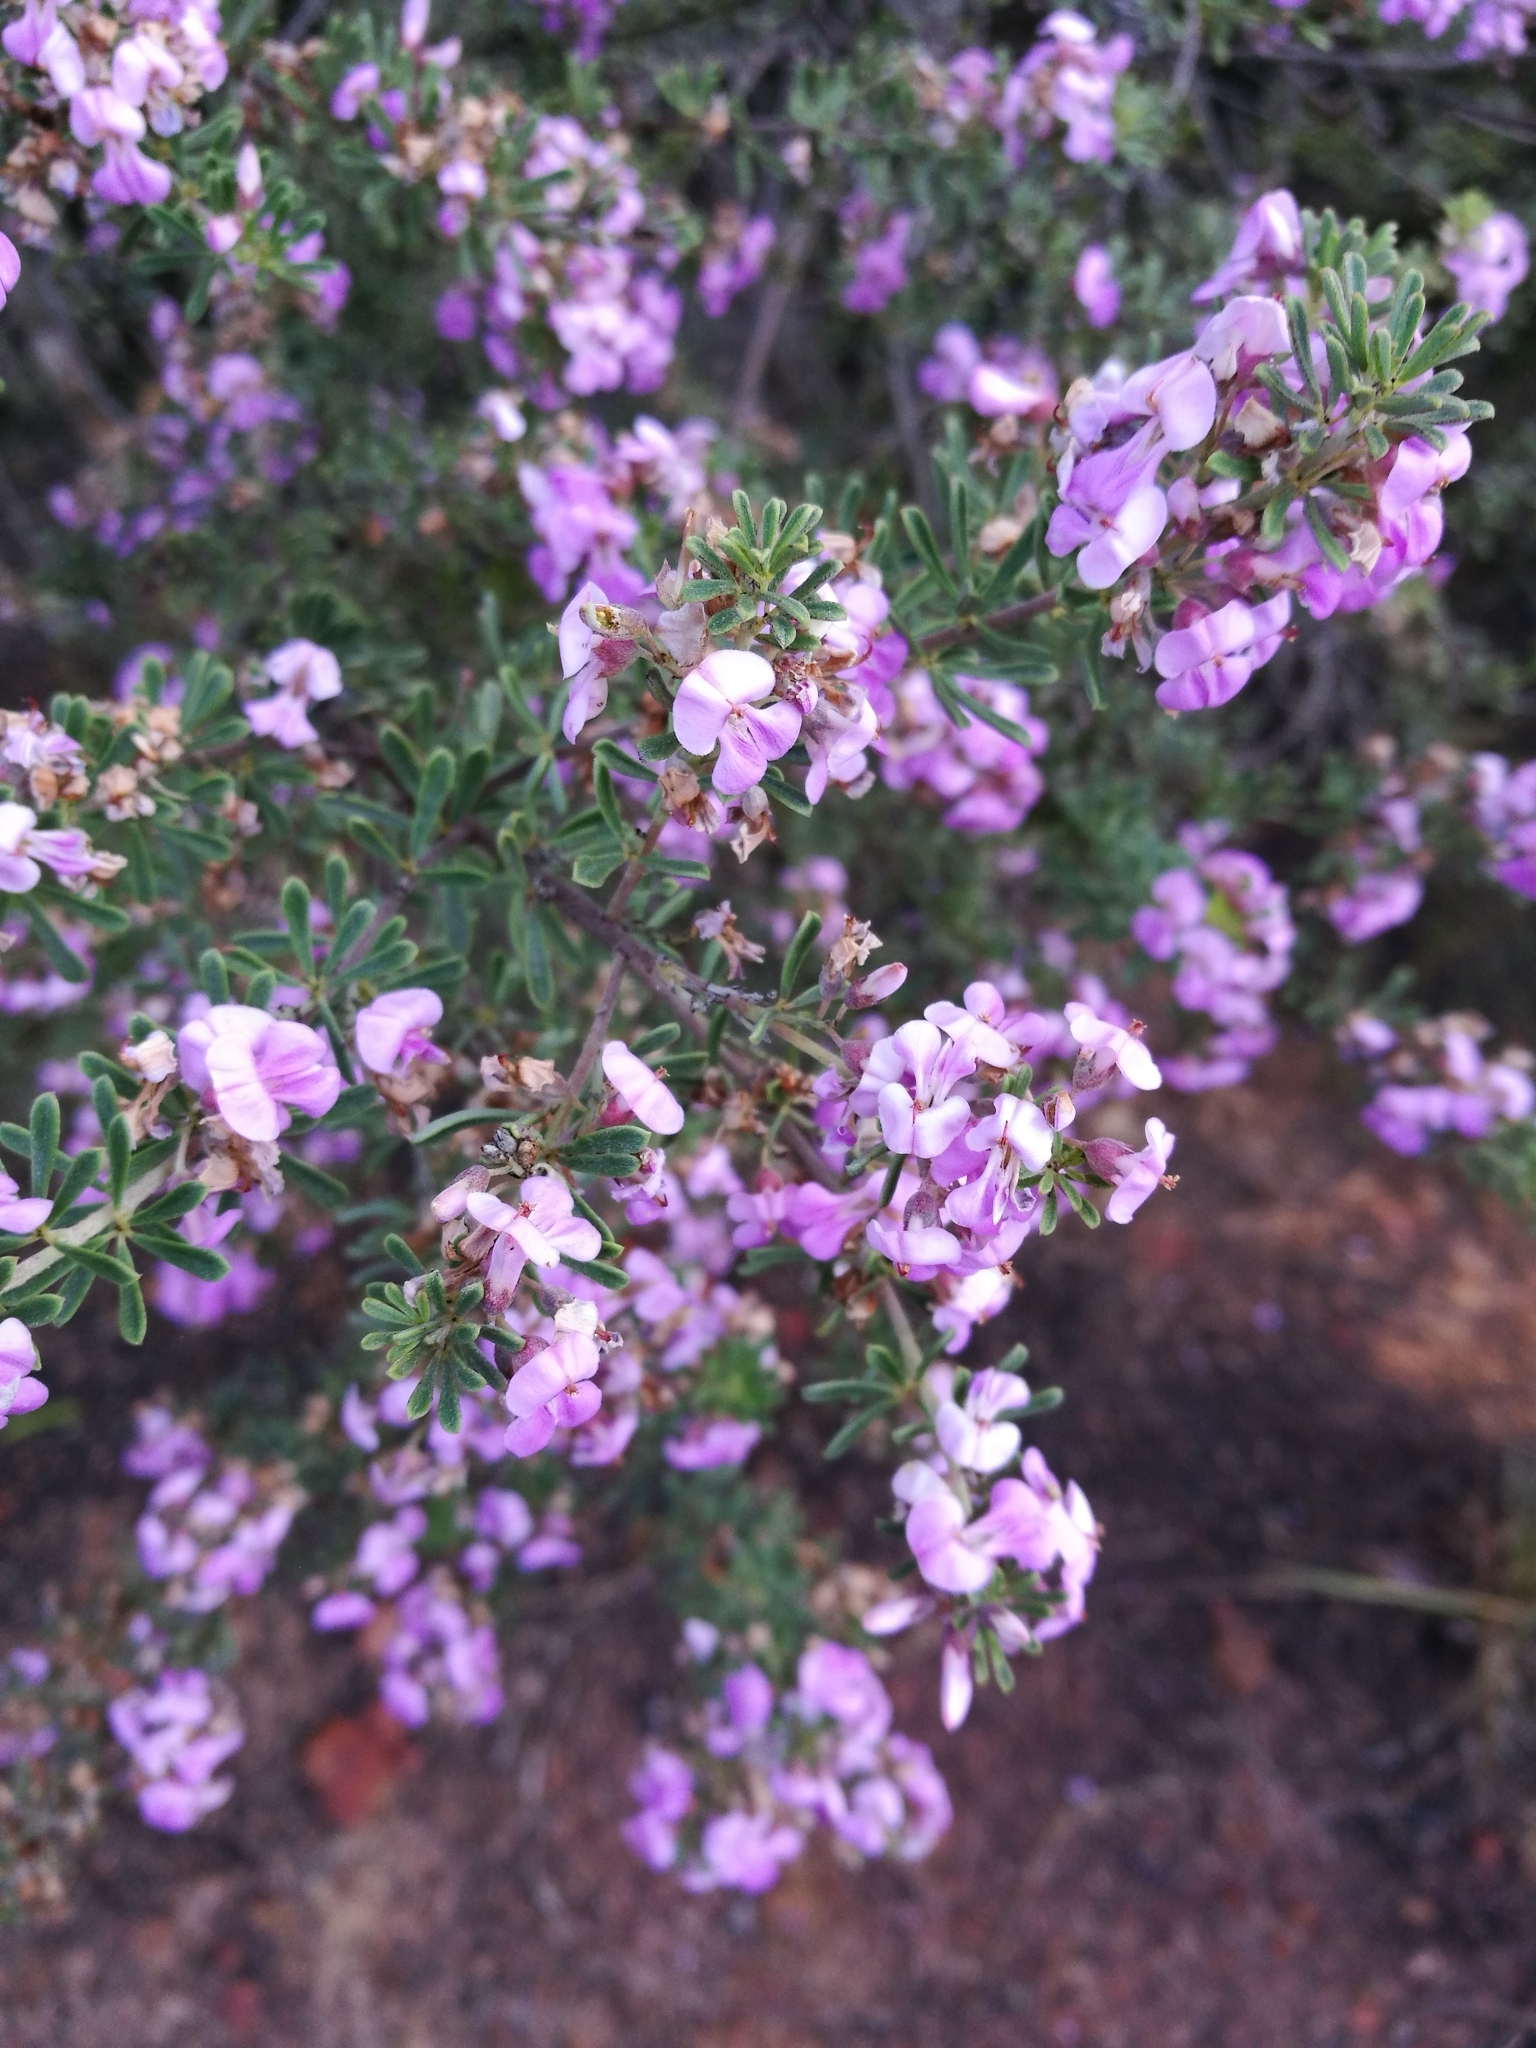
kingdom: Plantae
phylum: Tracheophyta
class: Magnoliopsida
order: Fabales
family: Fabaceae
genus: Indigofera
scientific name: Indigofera flabellata
